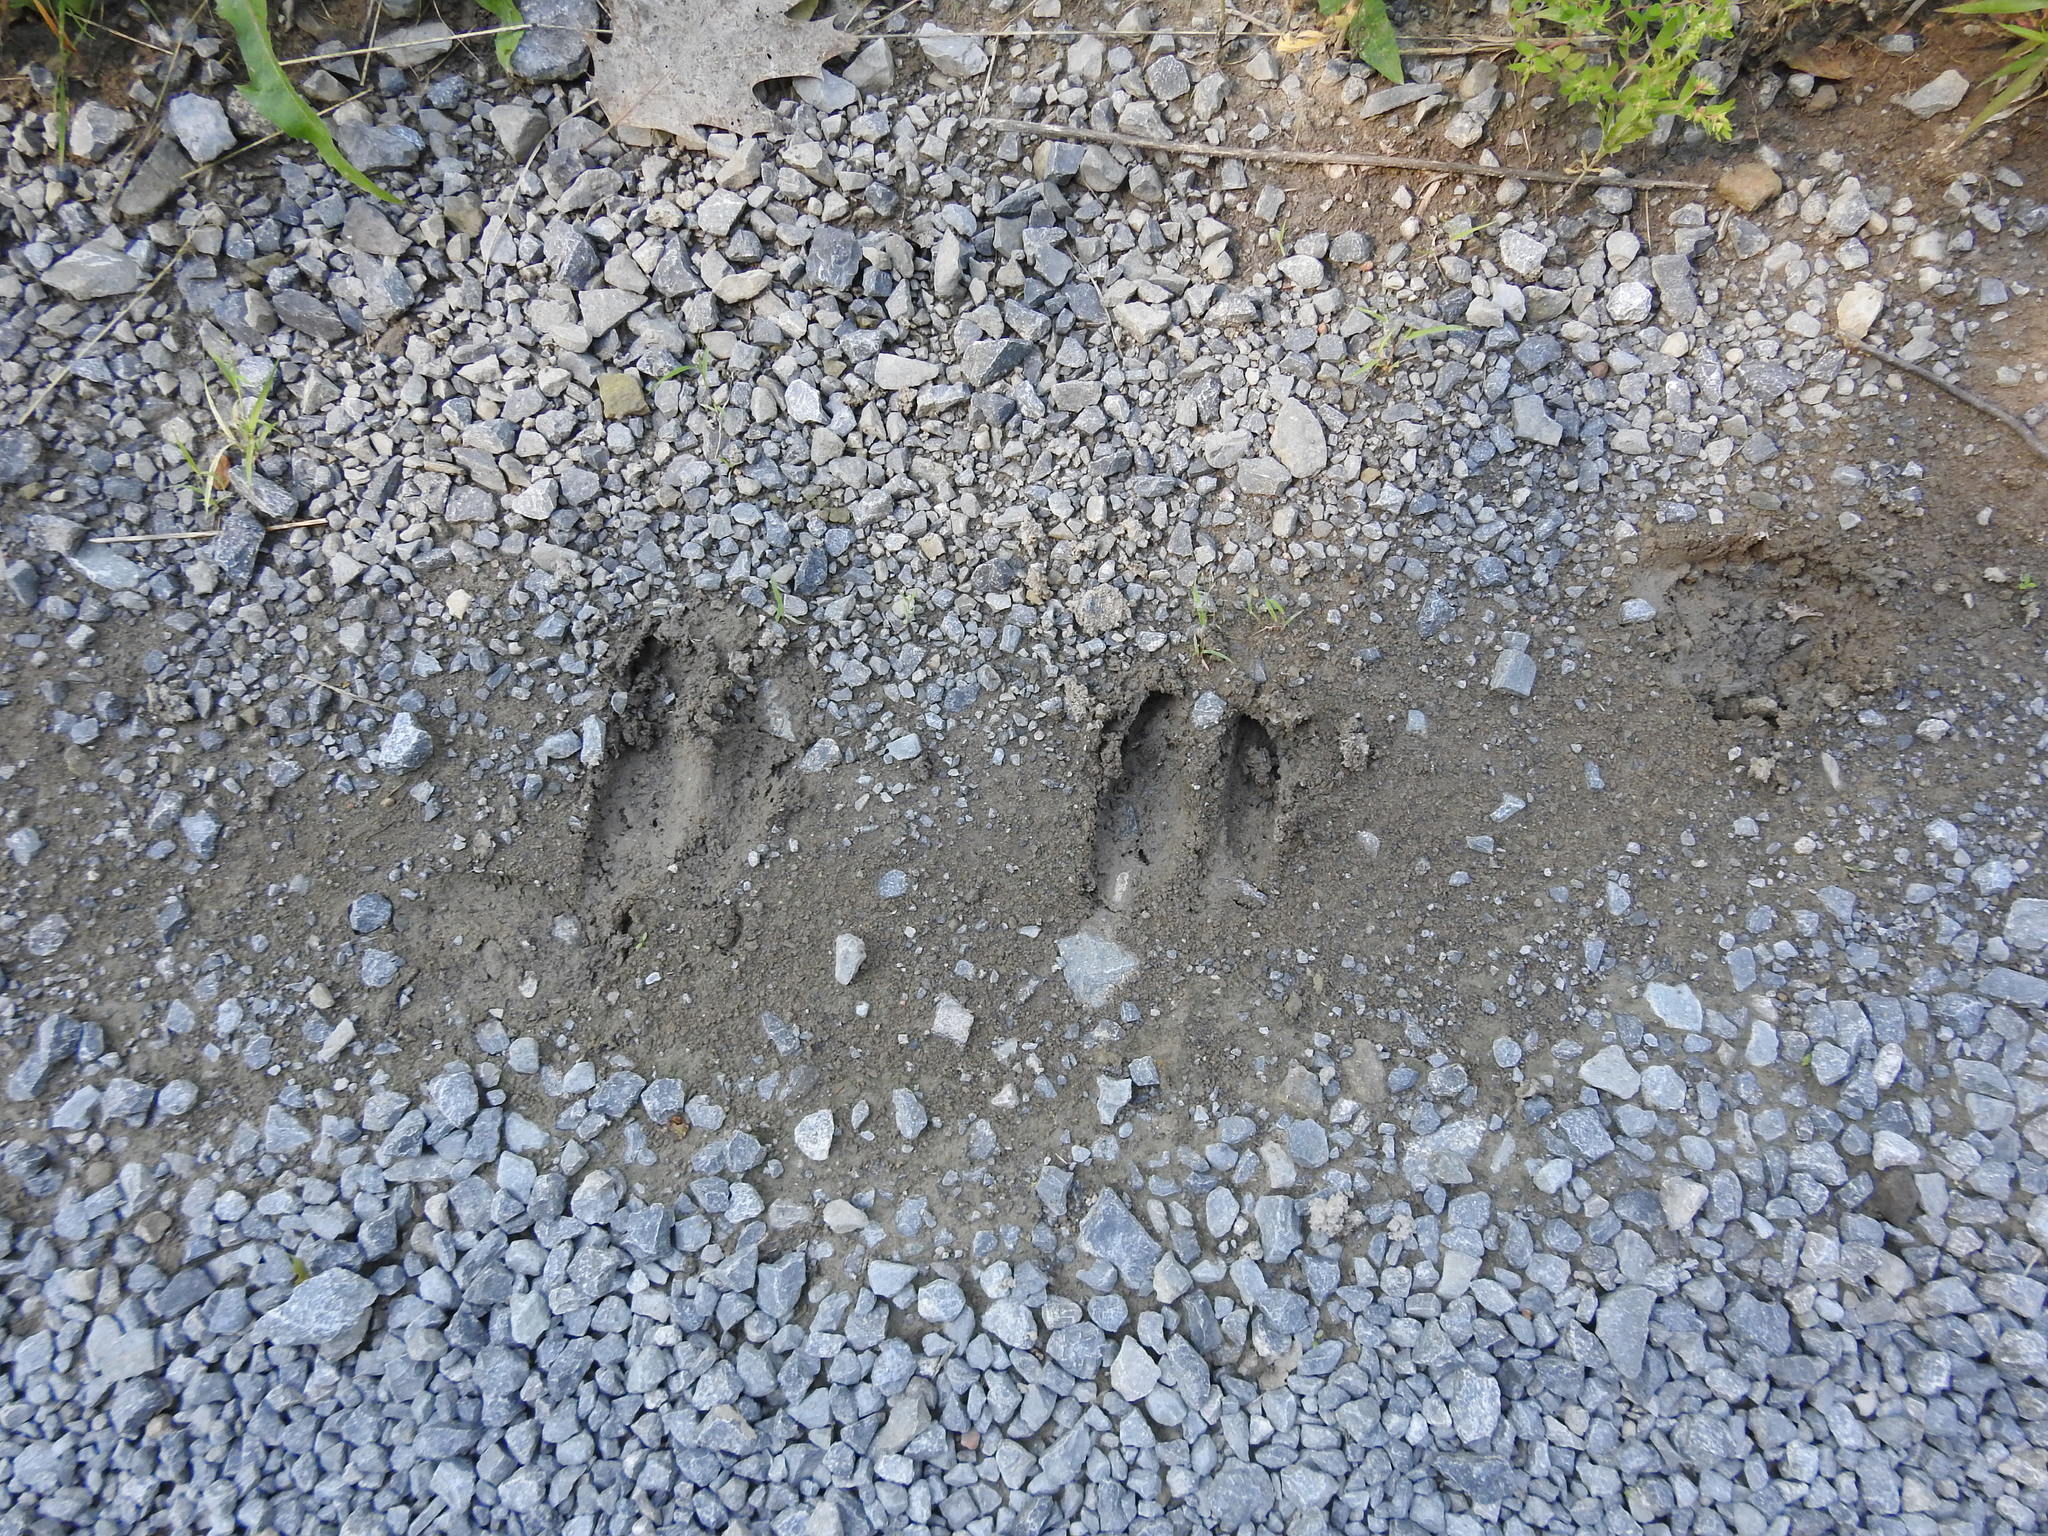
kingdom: Animalia
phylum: Chordata
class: Mammalia
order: Artiodactyla
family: Cervidae
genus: Odocoileus
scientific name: Odocoileus virginianus
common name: White-tailed deer
